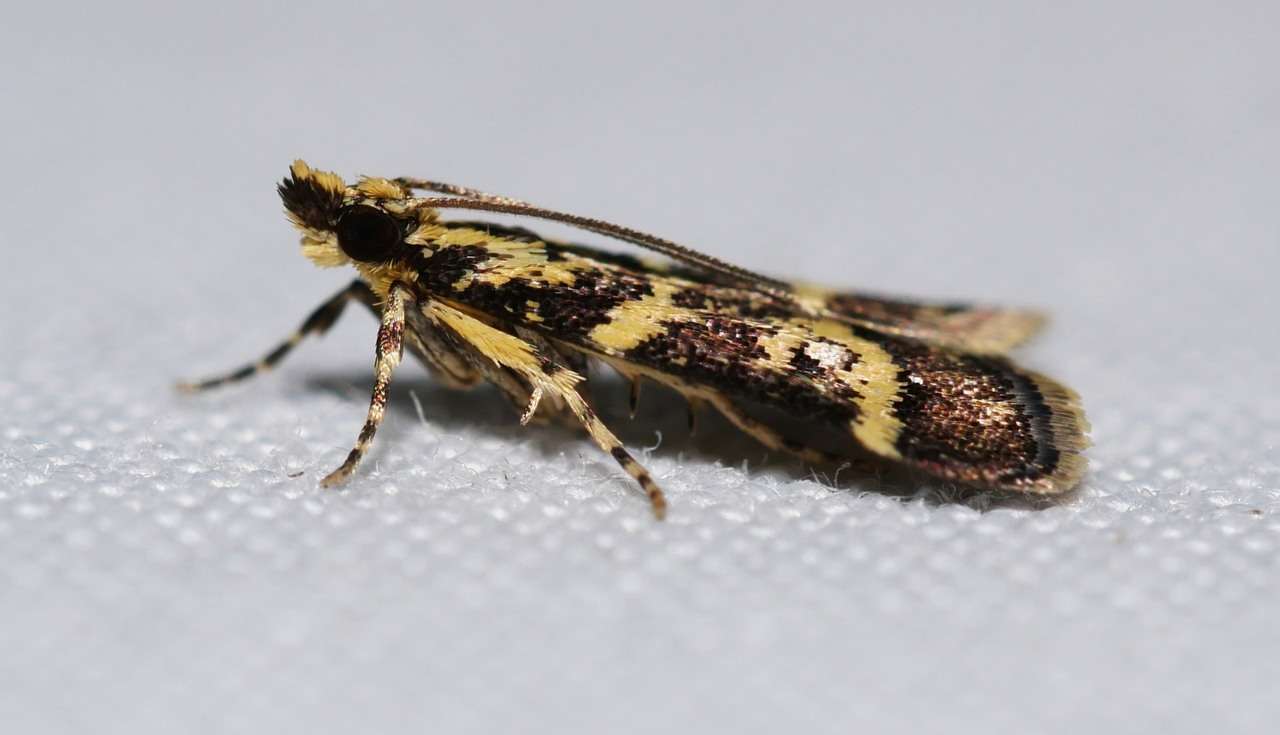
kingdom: Animalia
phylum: Arthropoda
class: Insecta
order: Lepidoptera
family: Crambidae
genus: Scoparia
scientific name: Scoparia spelaea
